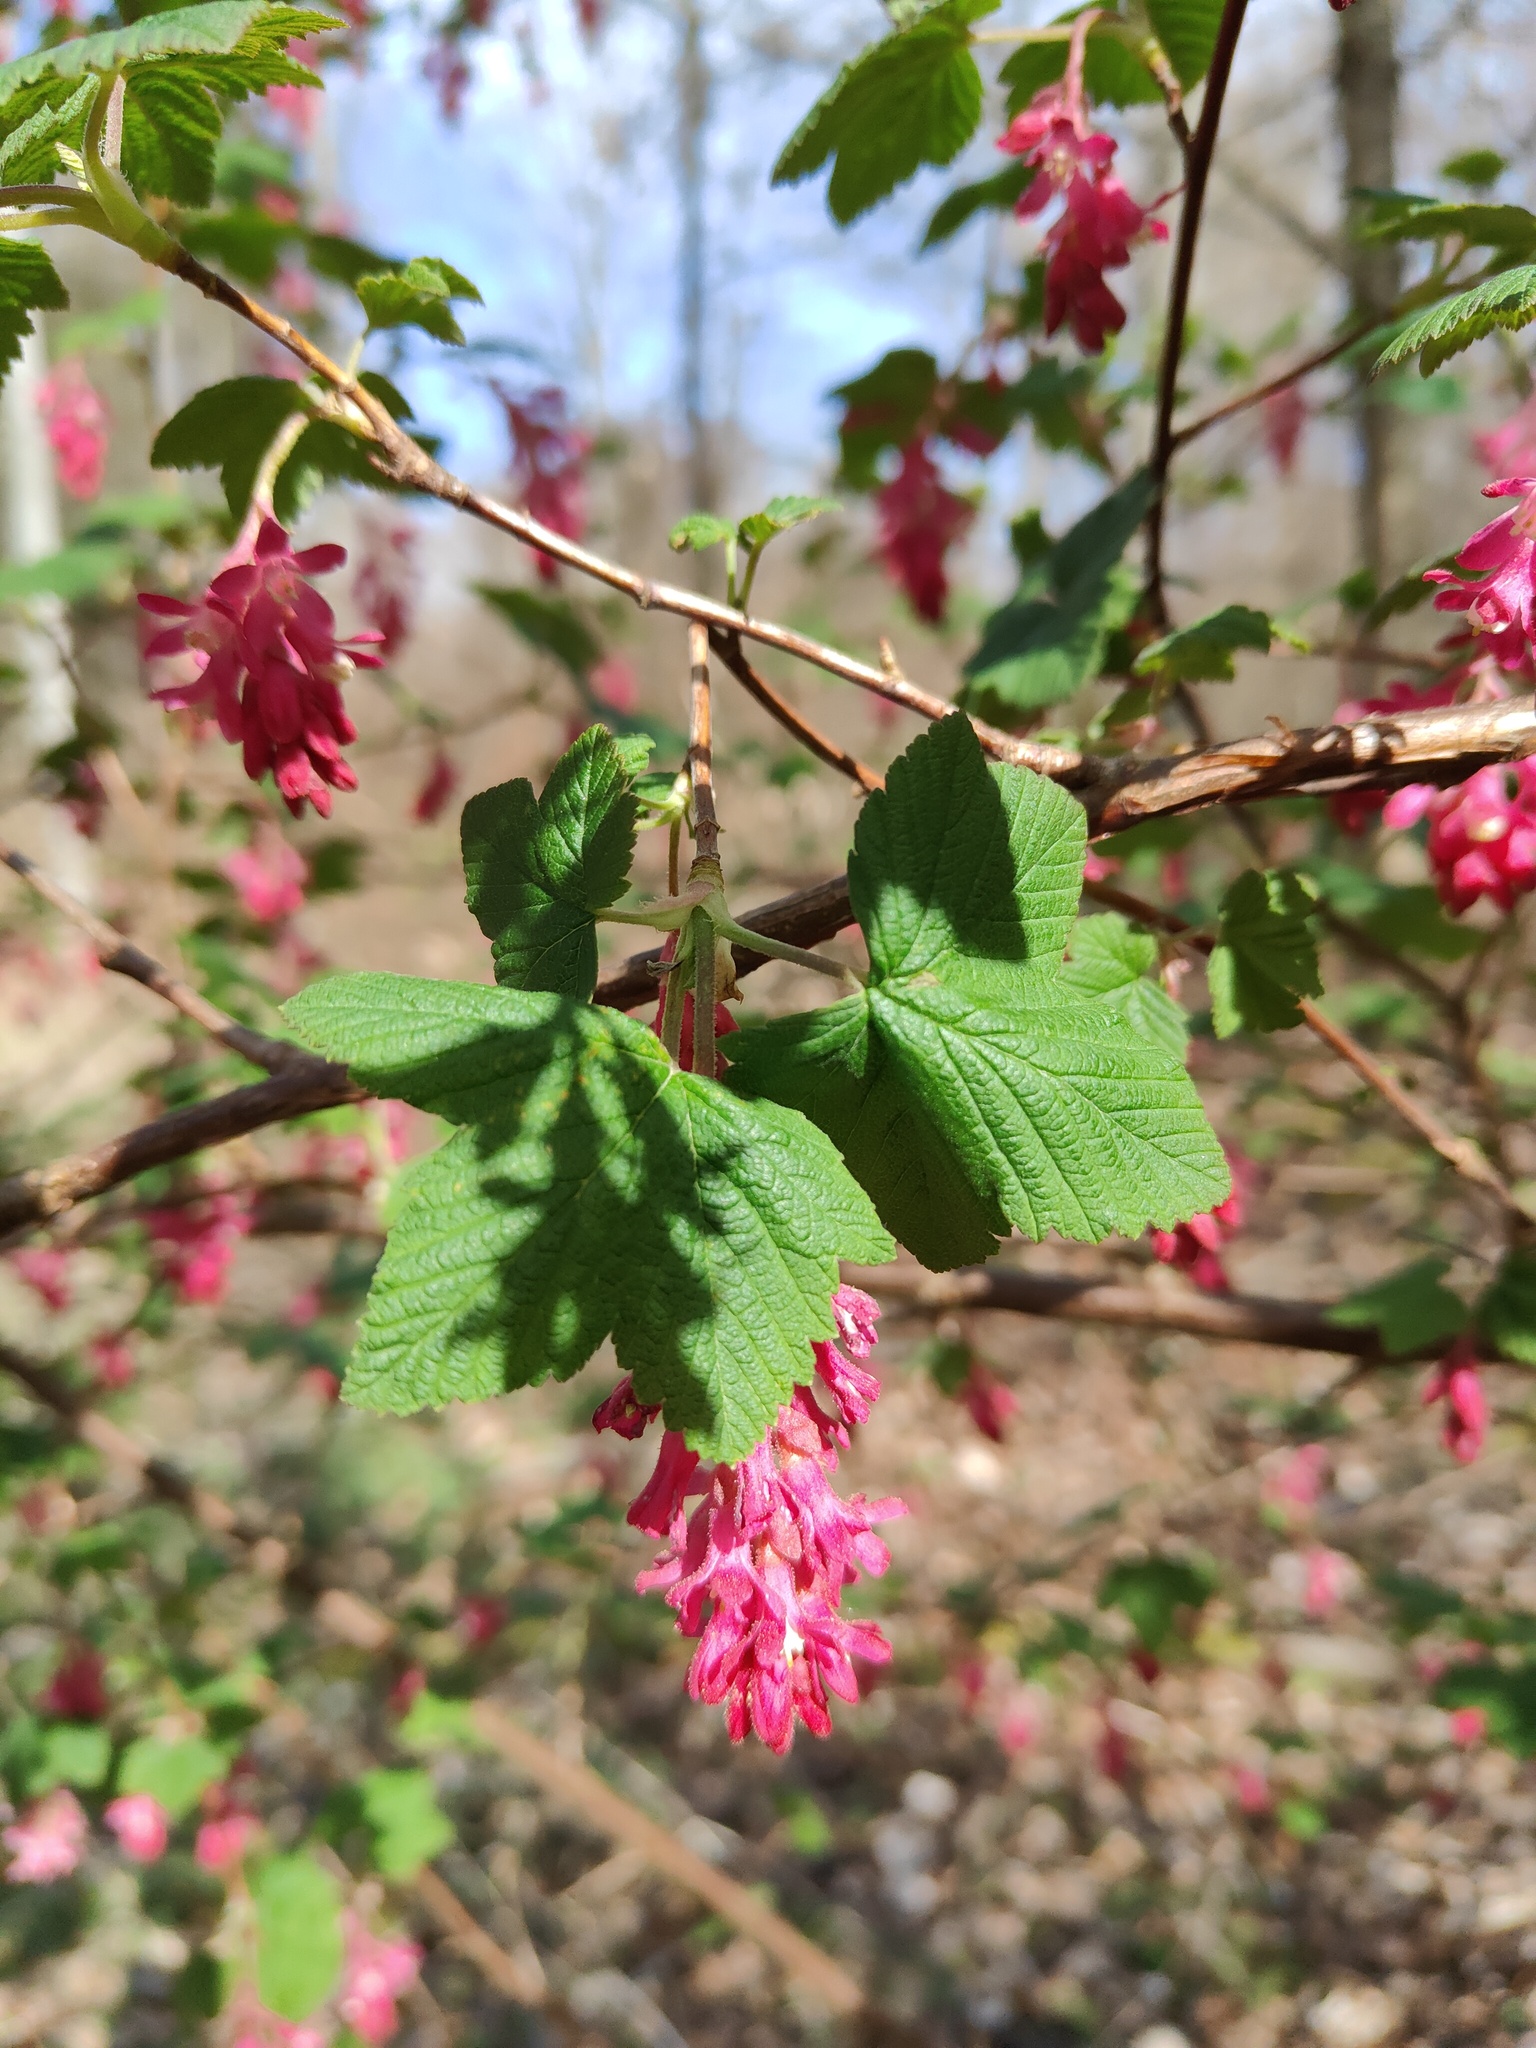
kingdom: Plantae
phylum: Tracheophyta
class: Magnoliopsida
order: Saxifragales
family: Grossulariaceae
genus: Ribes
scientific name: Ribes sanguineum
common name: Flowering currant
